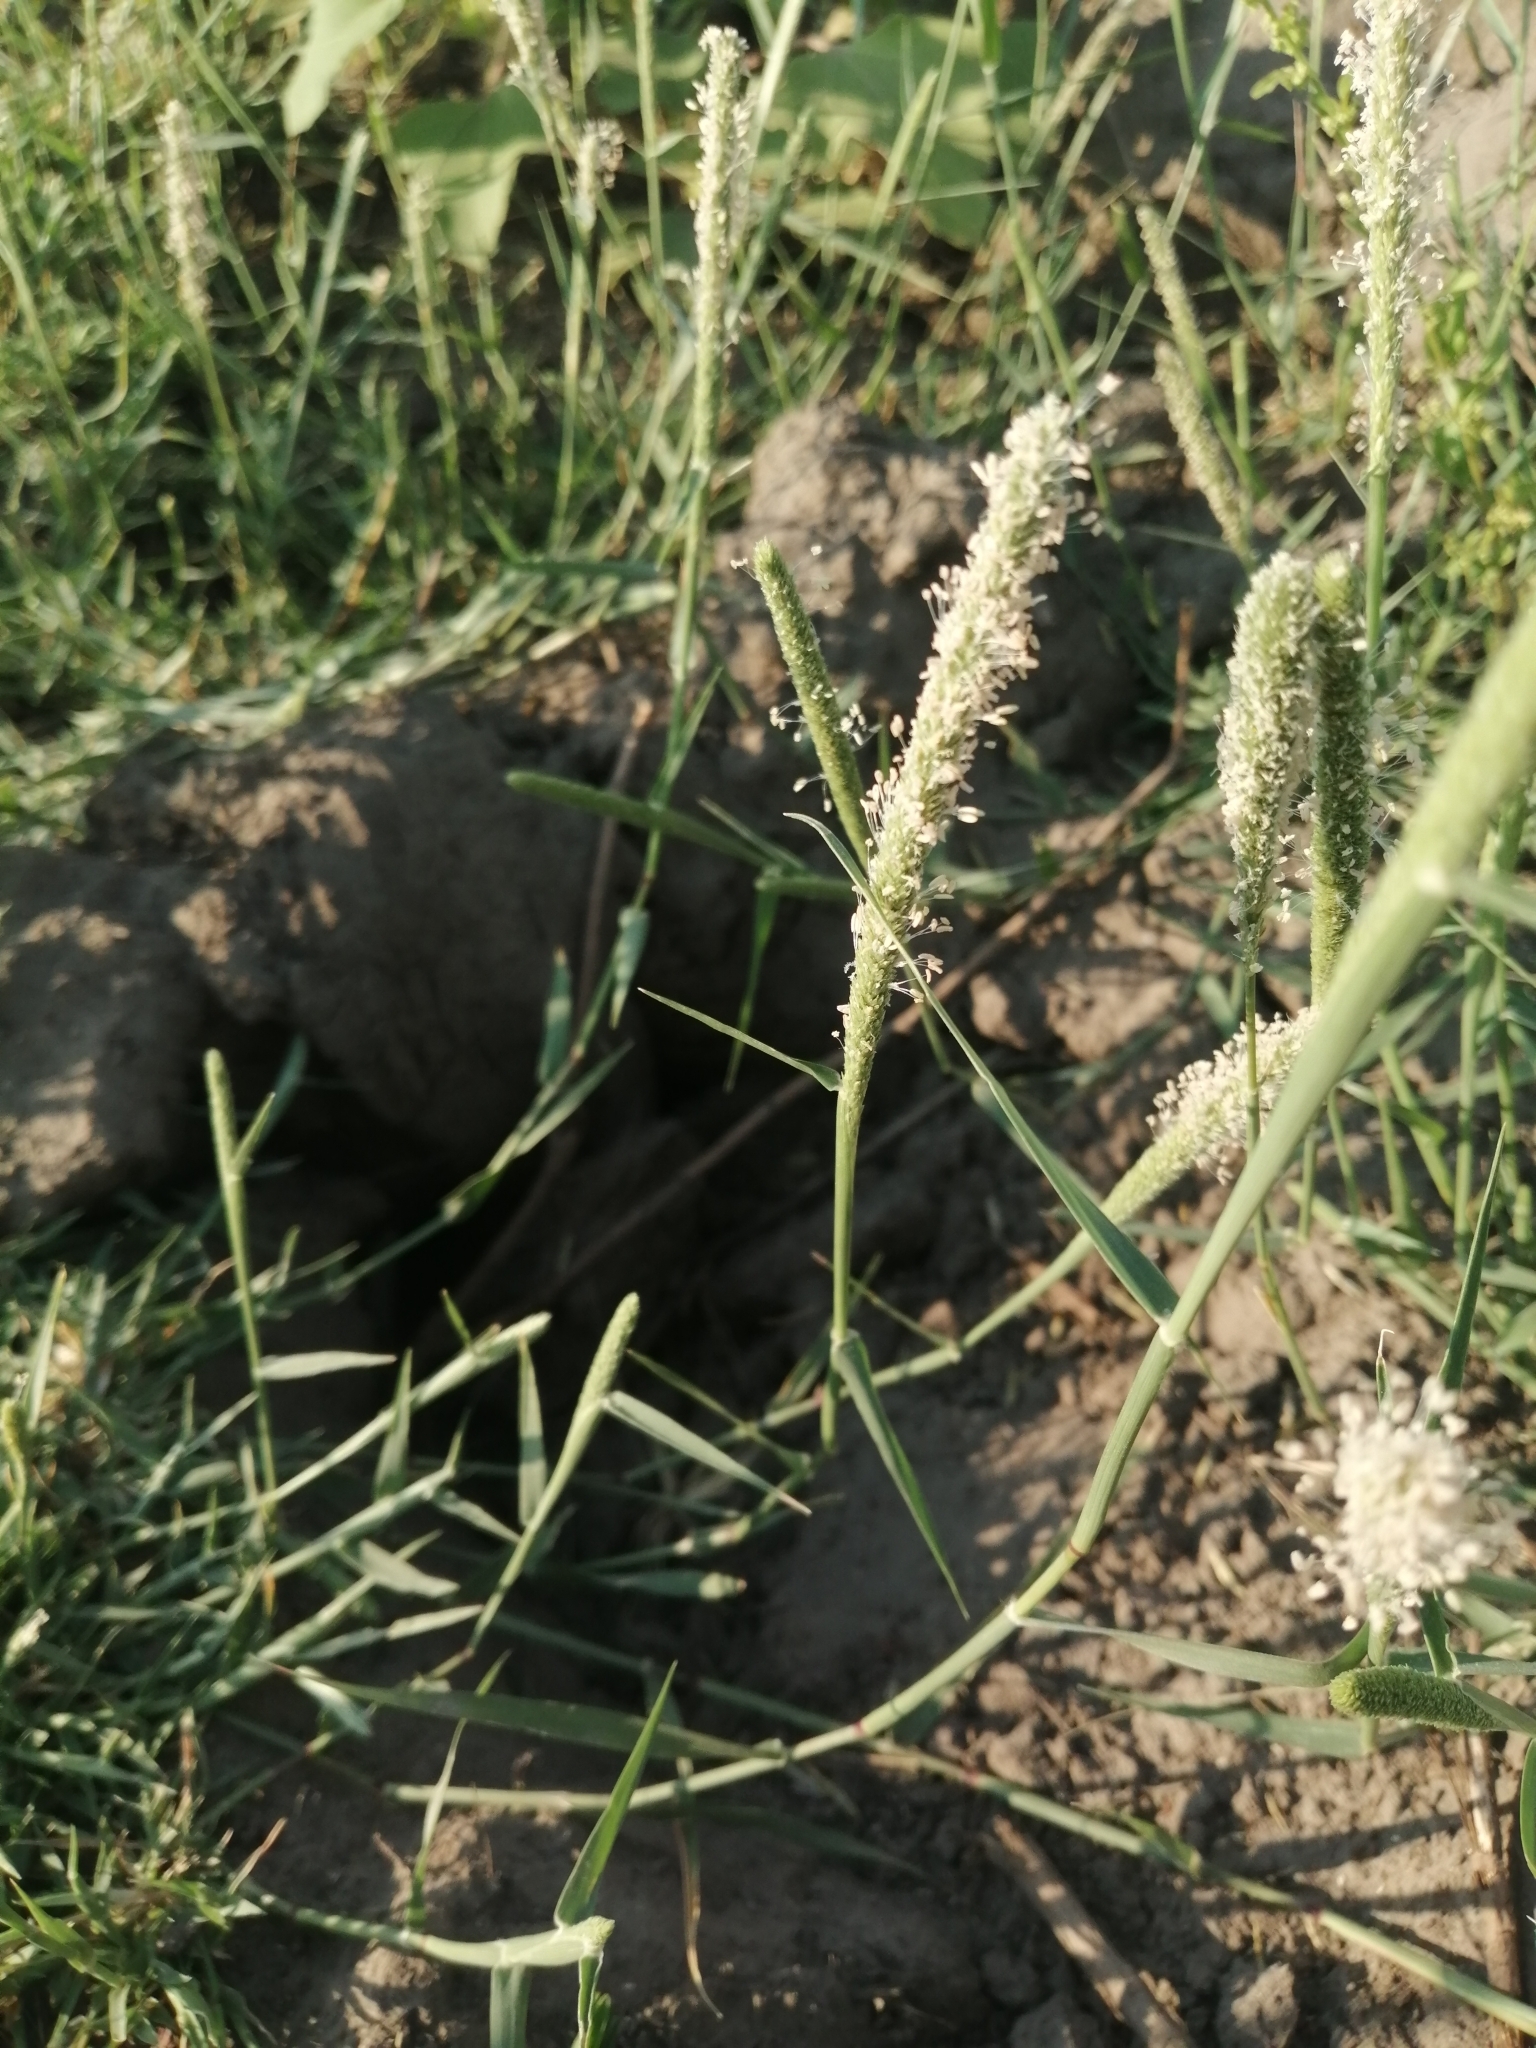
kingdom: Plantae
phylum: Tracheophyta
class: Liliopsida
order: Poales
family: Poaceae
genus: Sporobolus
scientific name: Sporobolus alopecuroides
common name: Foxtail pricklegrass
